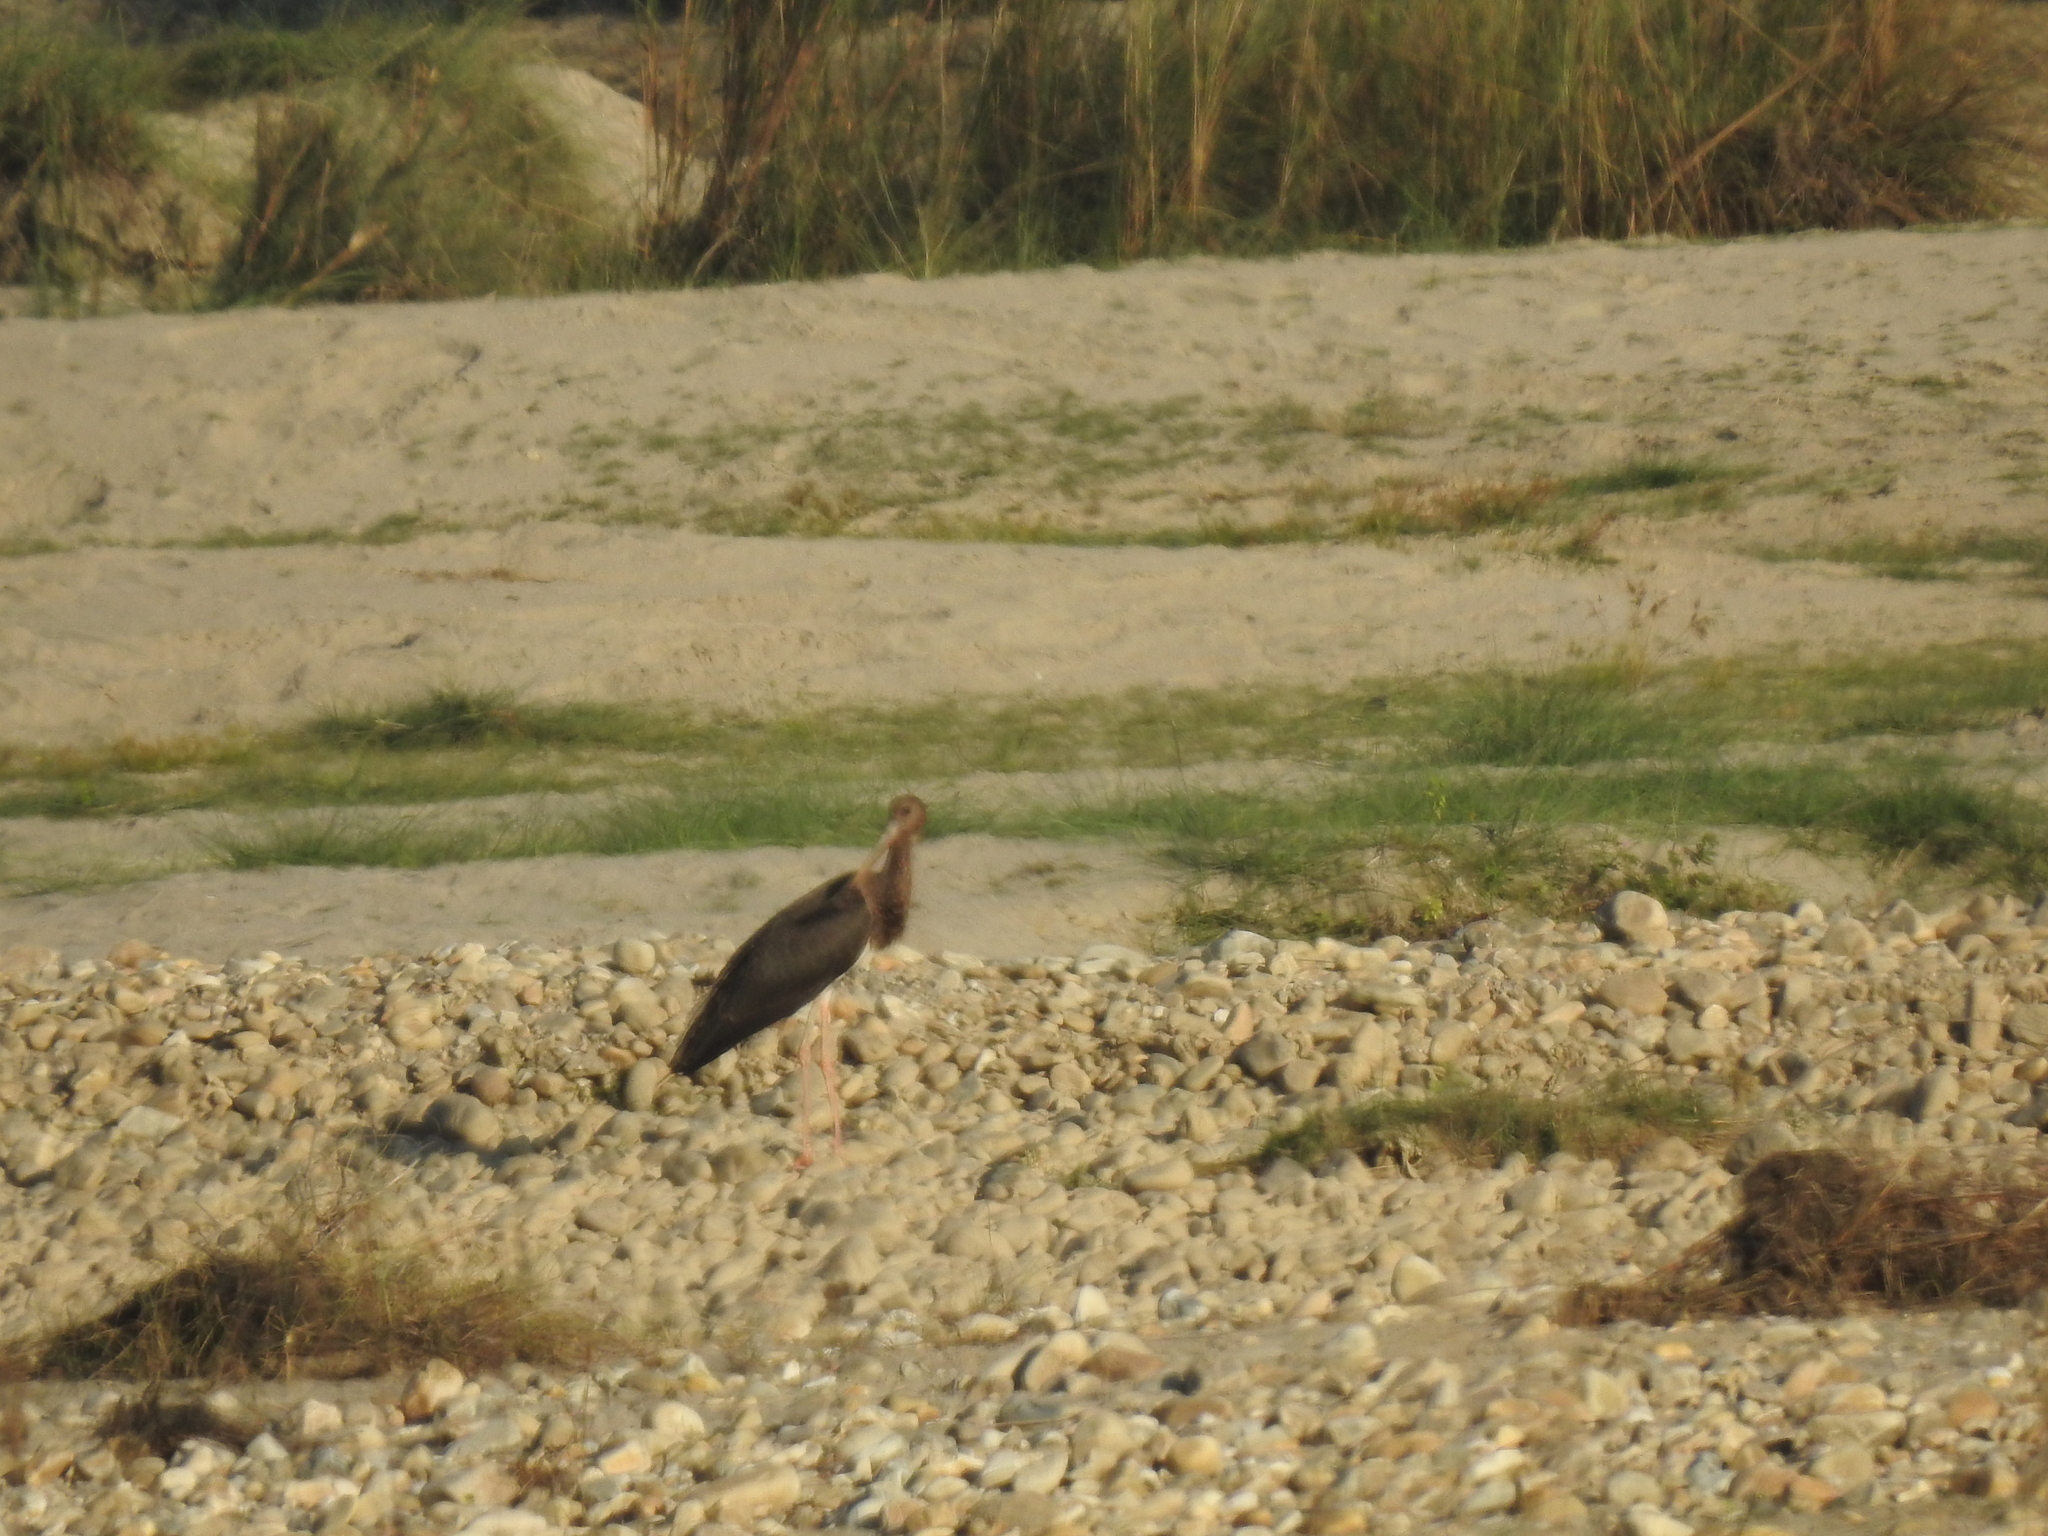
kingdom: Animalia
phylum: Chordata
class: Aves
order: Ciconiiformes
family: Ciconiidae
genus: Ciconia
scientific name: Ciconia nigra
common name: Black stork
